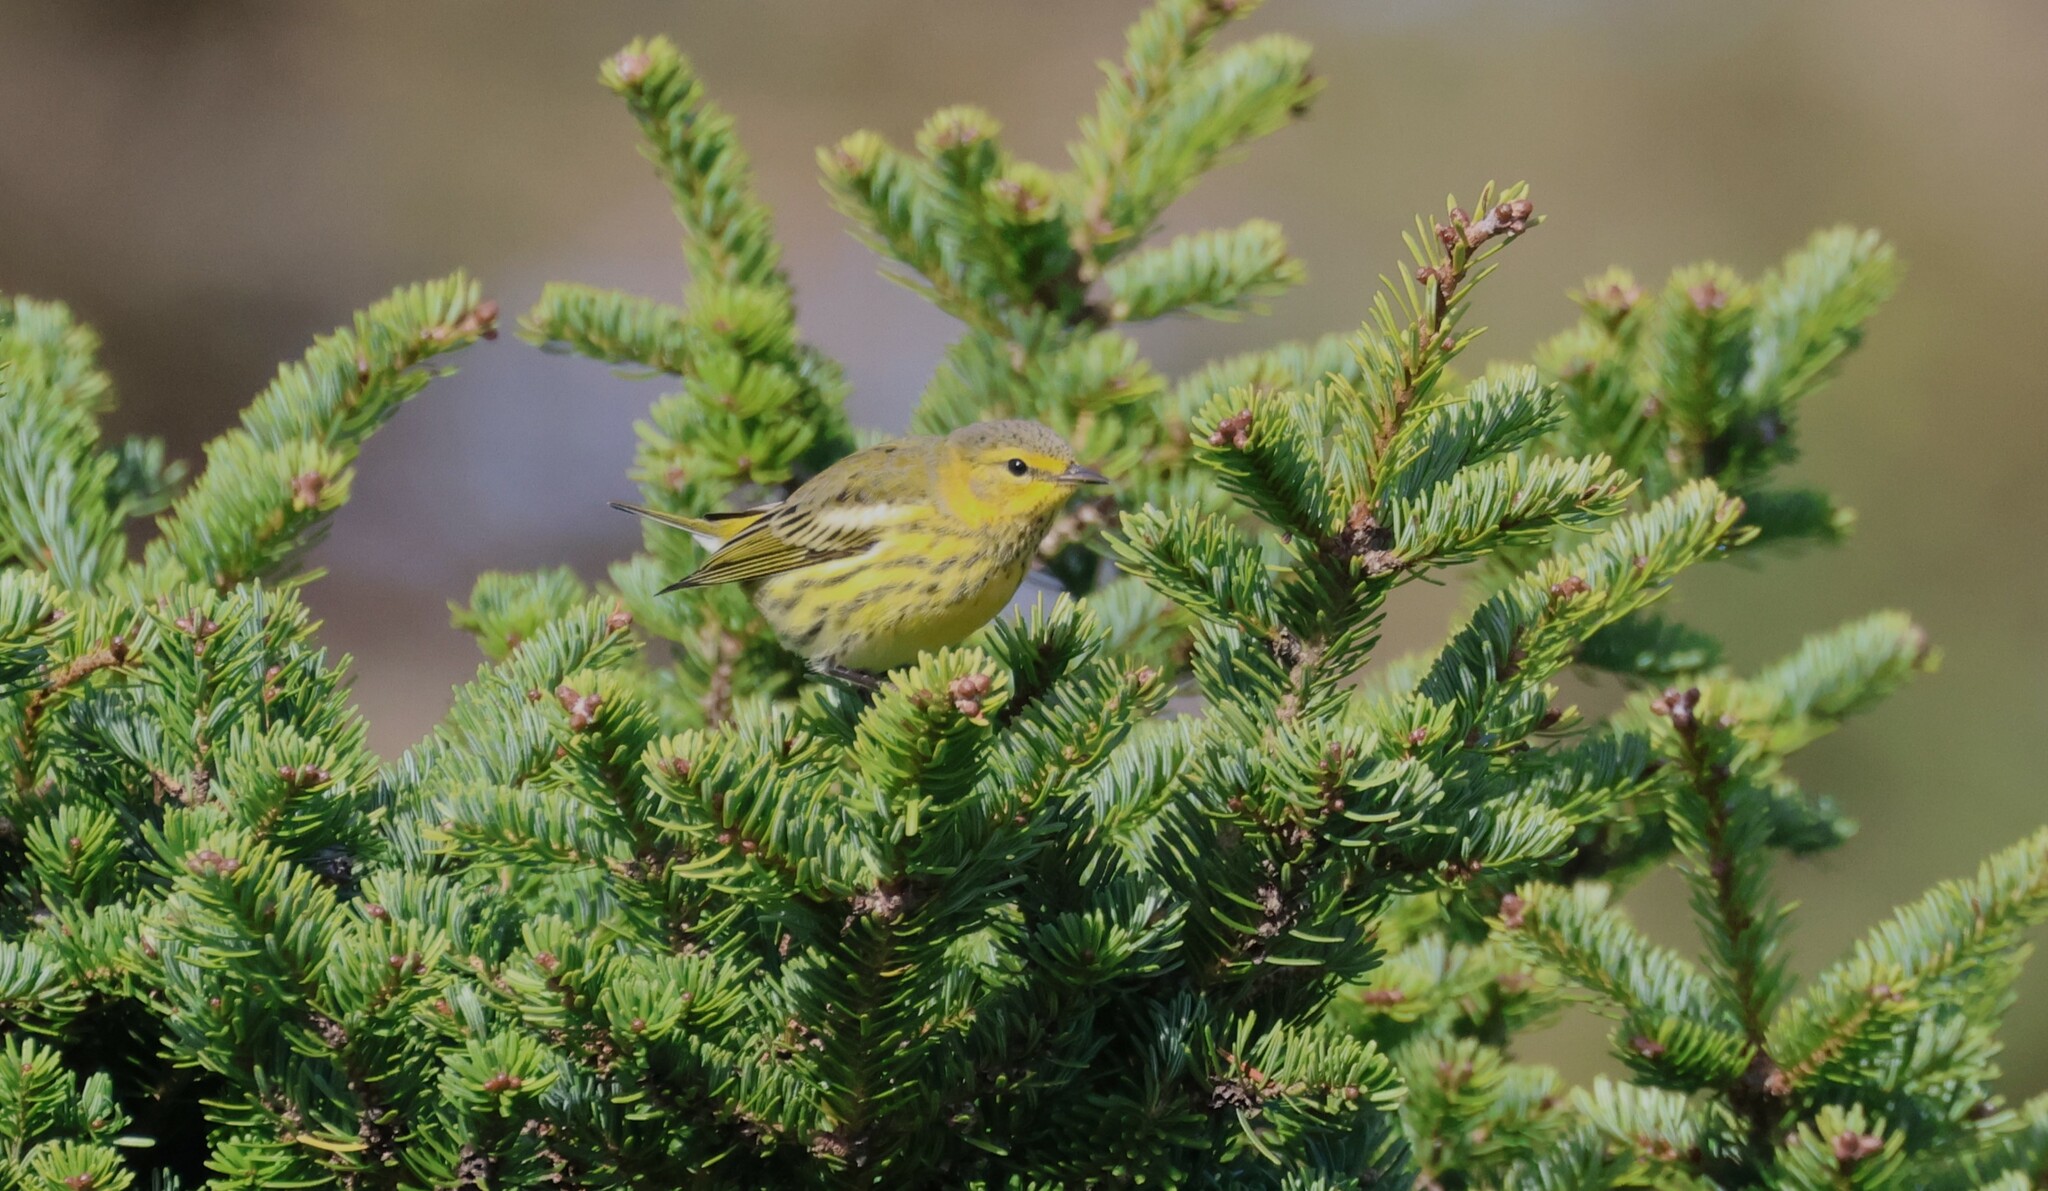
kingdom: Animalia
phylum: Chordata
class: Aves
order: Passeriformes
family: Parulidae
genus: Setophaga
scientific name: Setophaga tigrina
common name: Cape may warbler
